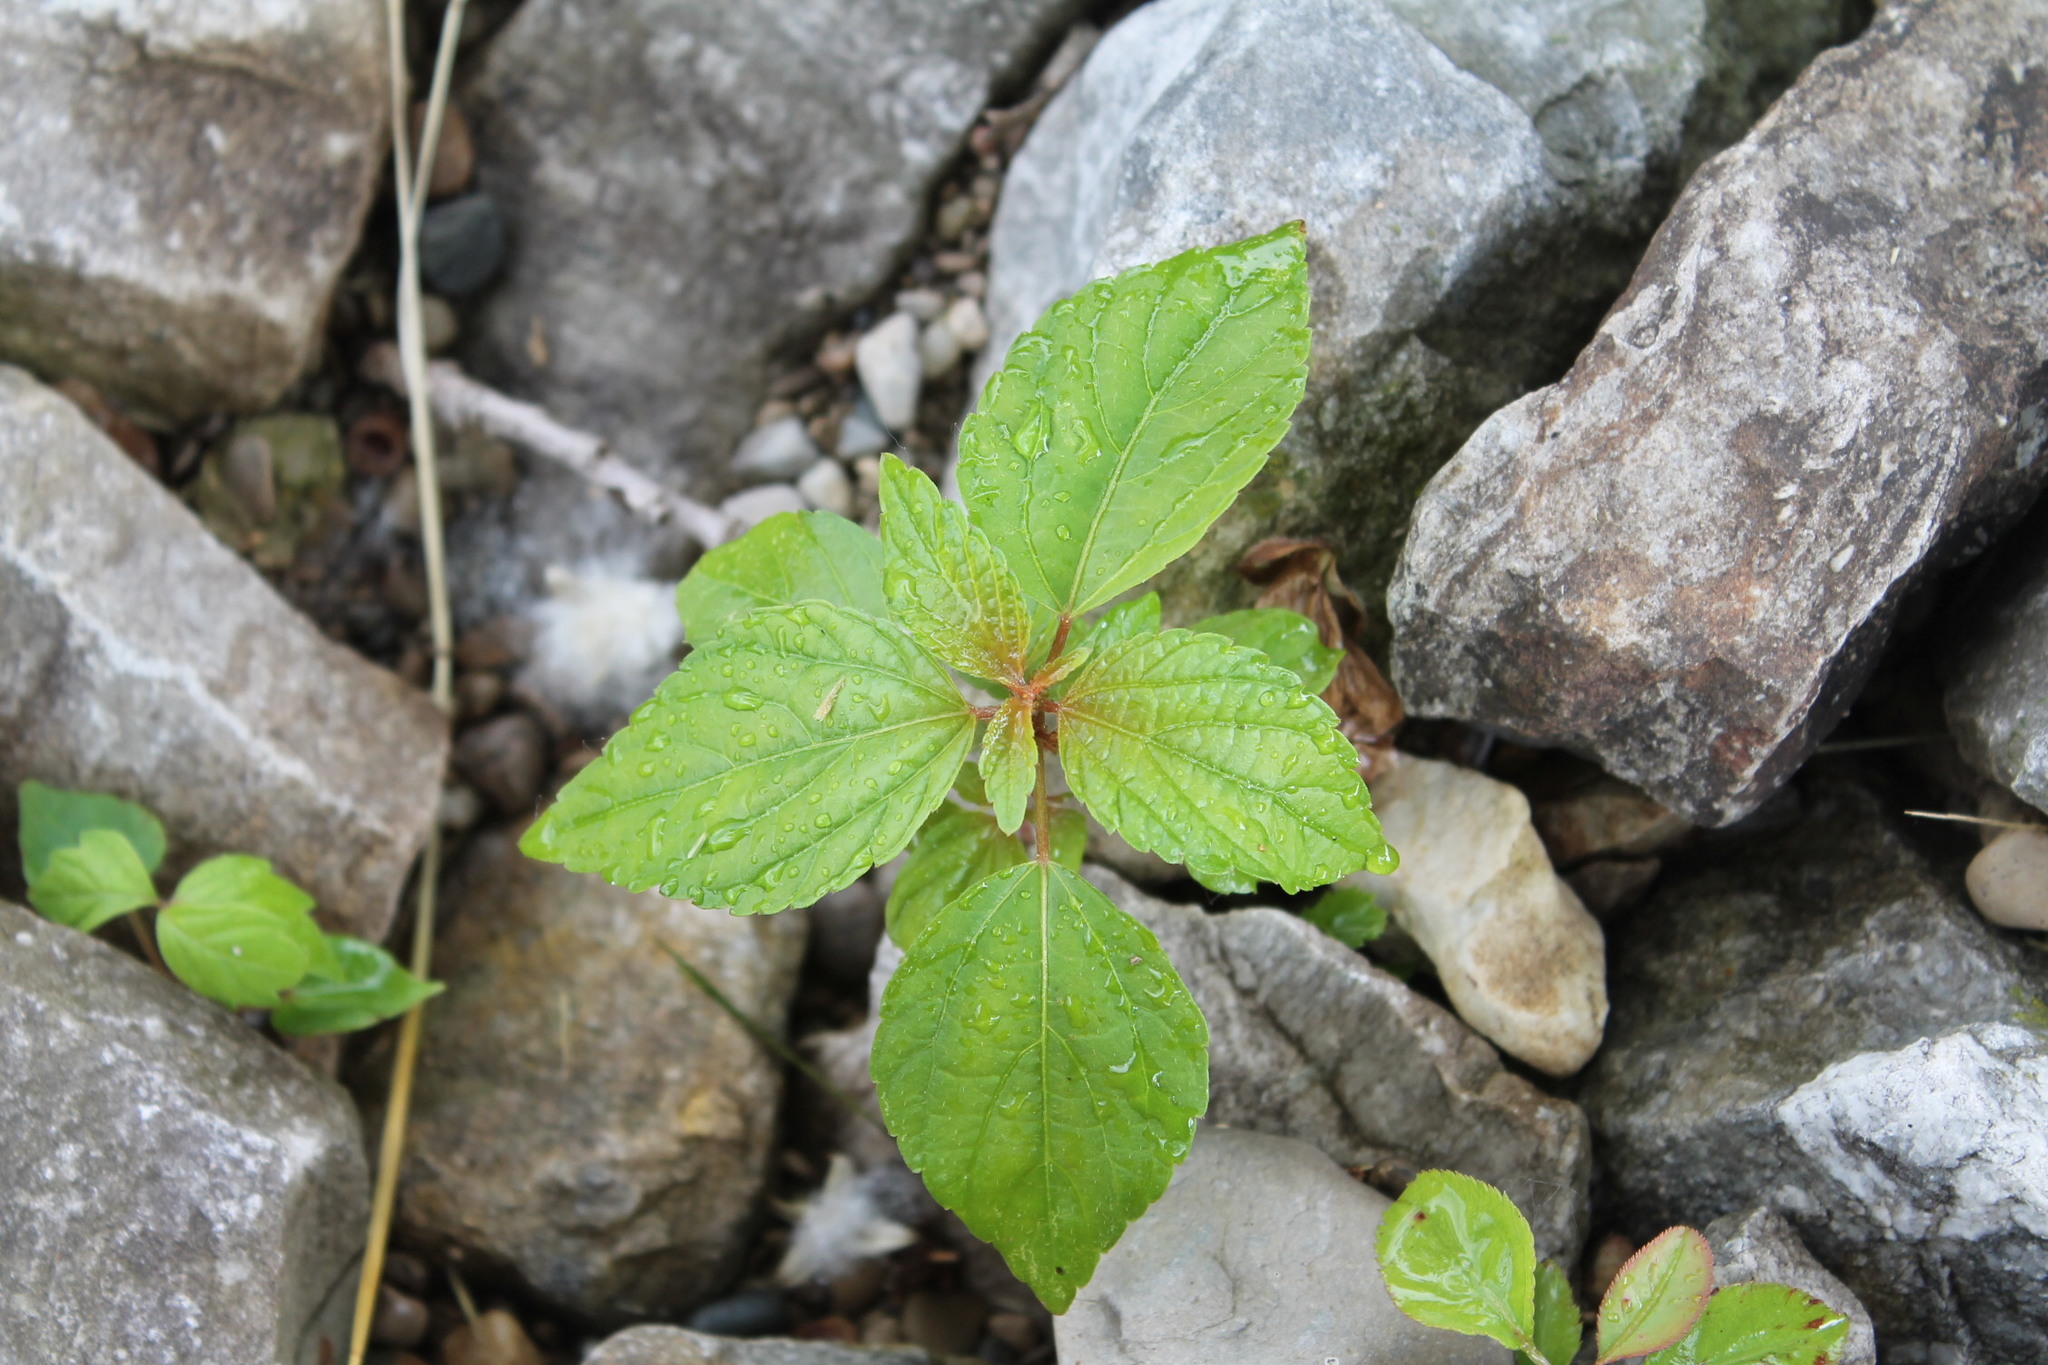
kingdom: Plantae
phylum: Tracheophyta
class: Magnoliopsida
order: Malpighiales
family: Euphorbiaceae
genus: Acalypha
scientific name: Acalypha rhomboidea
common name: Rhombic copperleaf
